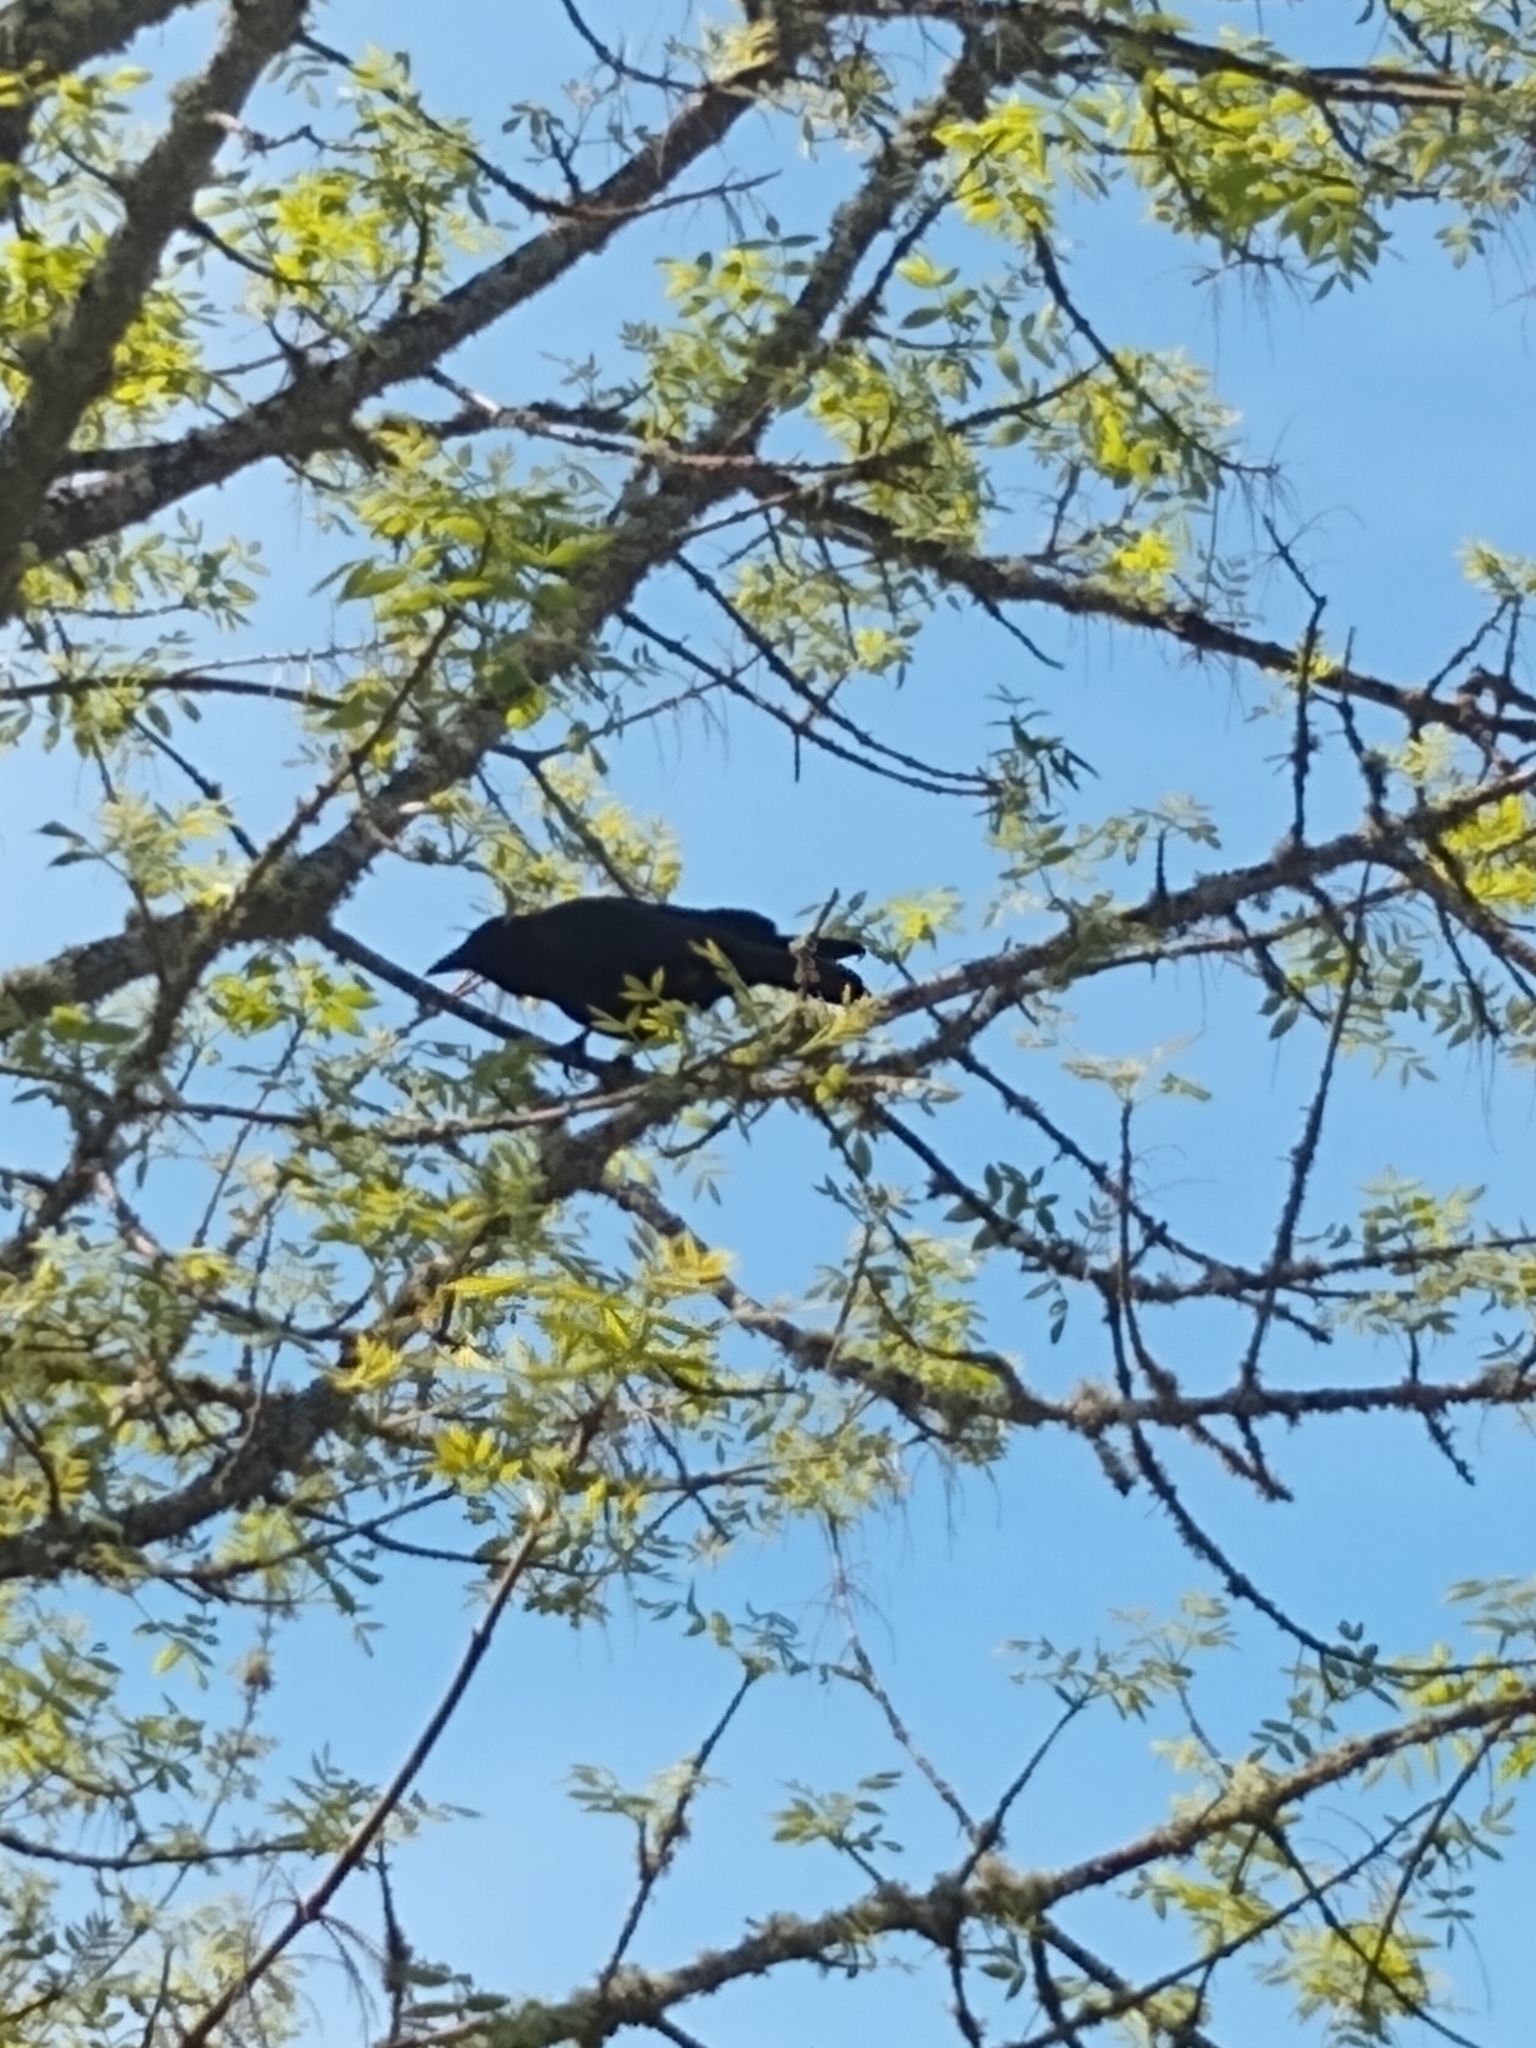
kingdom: Animalia
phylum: Chordata
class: Aves
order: Passeriformes
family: Corvidae
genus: Corvus
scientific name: Corvus brachyrhynchos
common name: American crow
